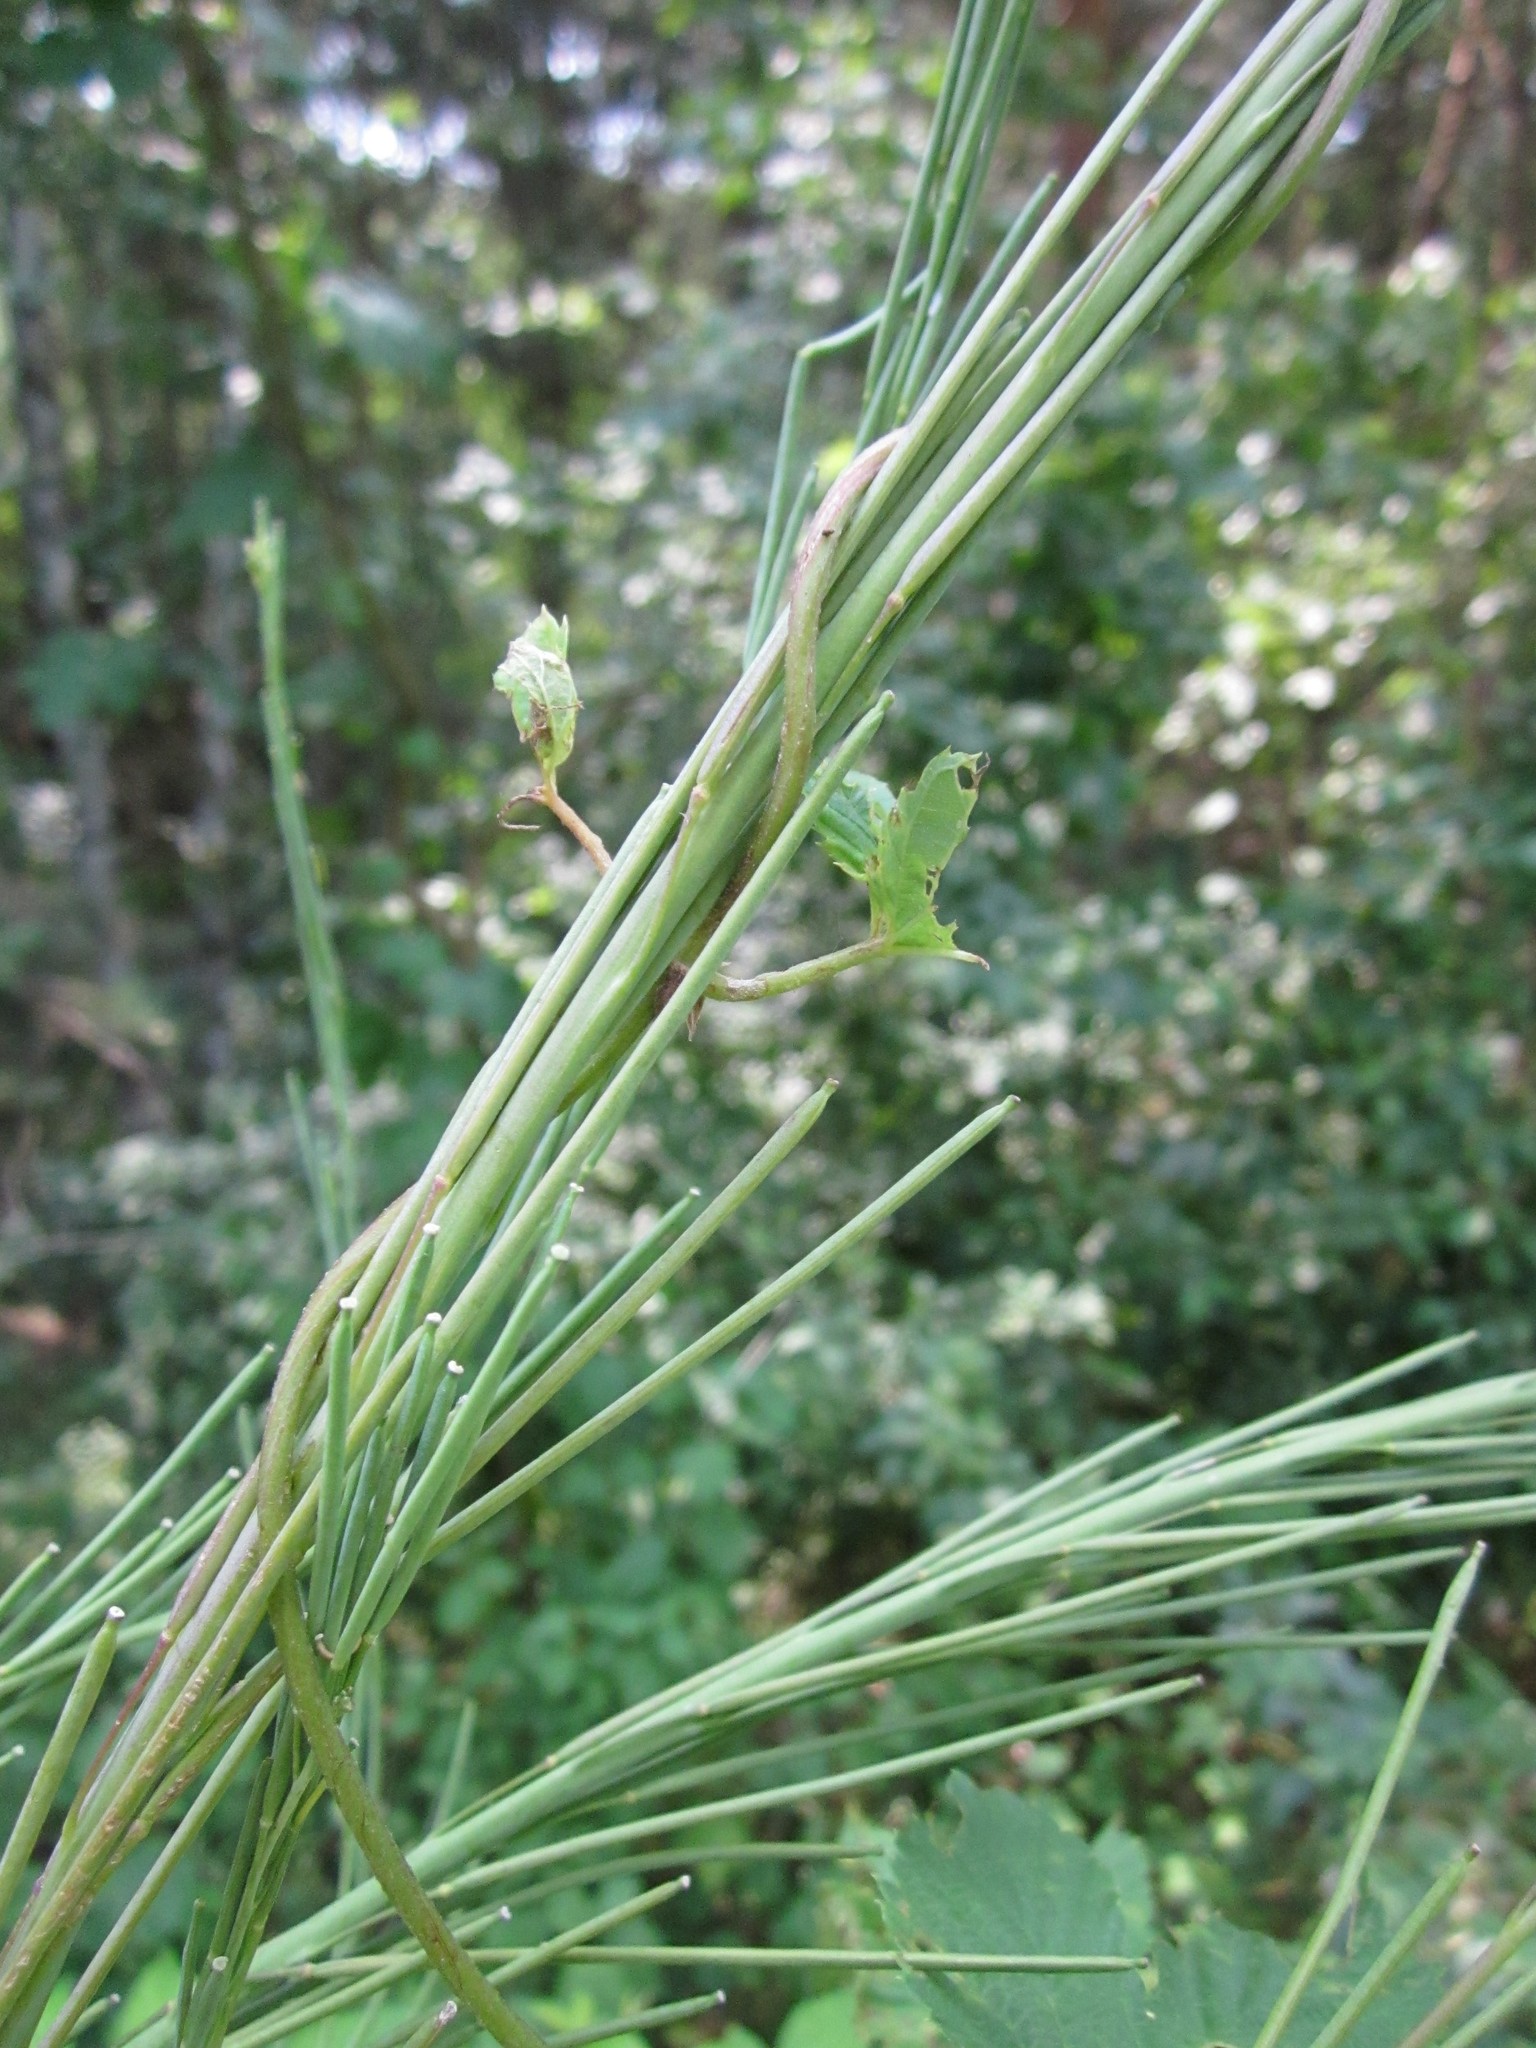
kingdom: Plantae
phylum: Tracheophyta
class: Magnoliopsida
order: Brassicales
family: Brassicaceae
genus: Turritis
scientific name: Turritis glabra
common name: Tower rockcress
